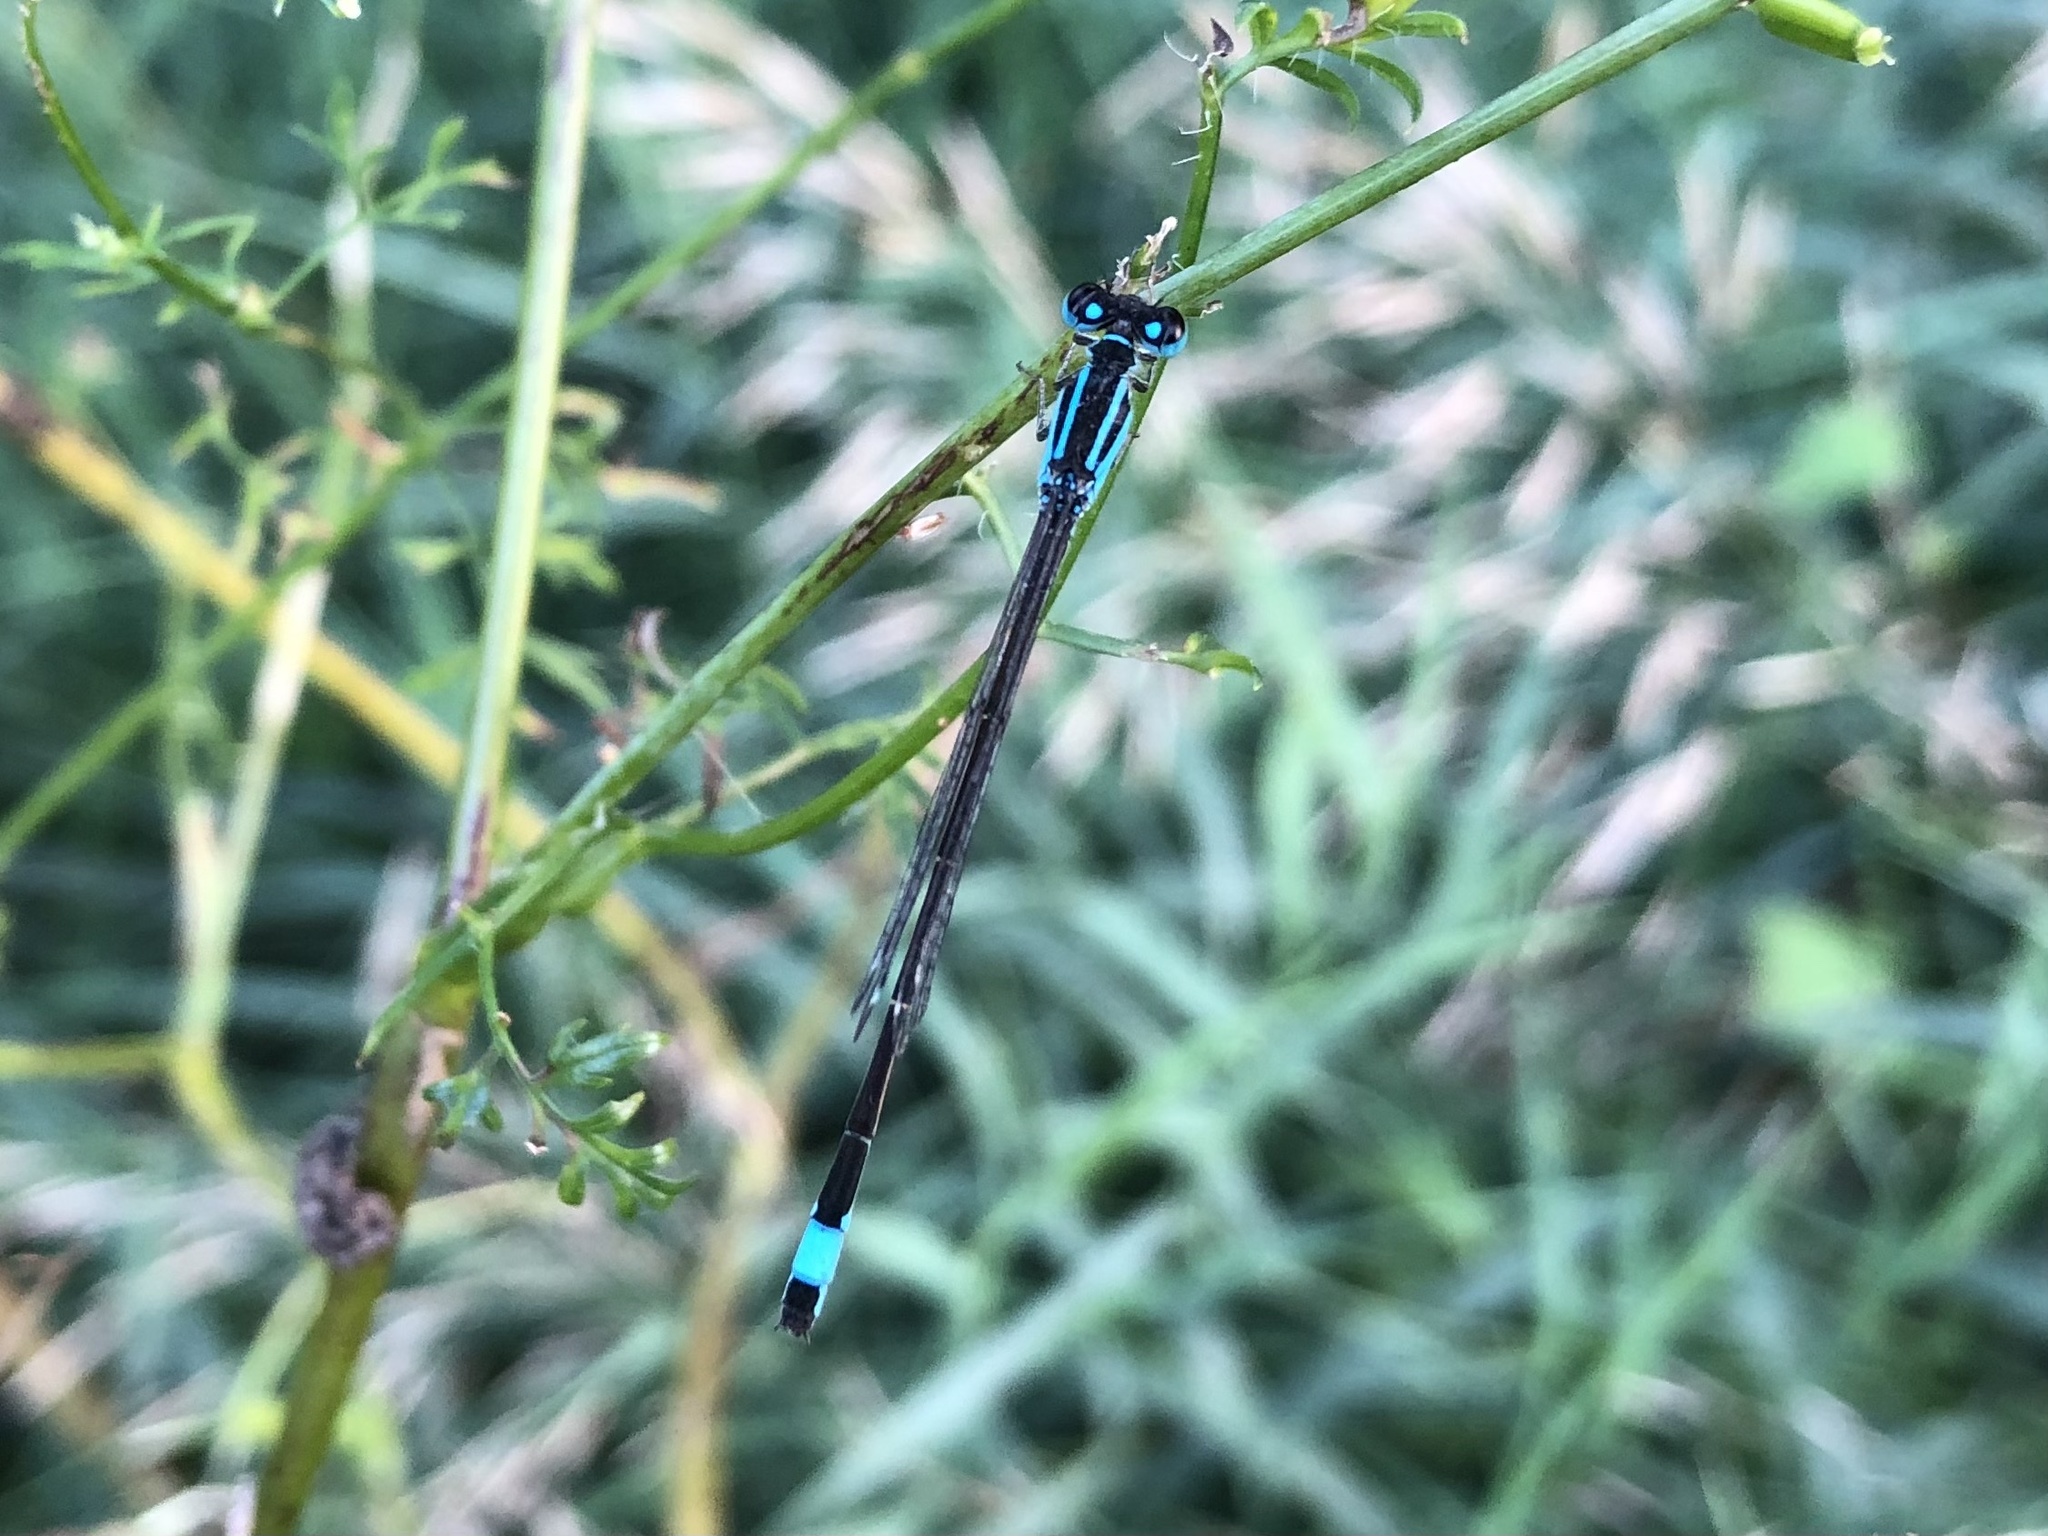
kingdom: Animalia
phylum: Arthropoda
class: Insecta
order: Odonata
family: Coenagrionidae
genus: Ischnura
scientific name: Ischnura elegans
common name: Blue-tailed damselfly
